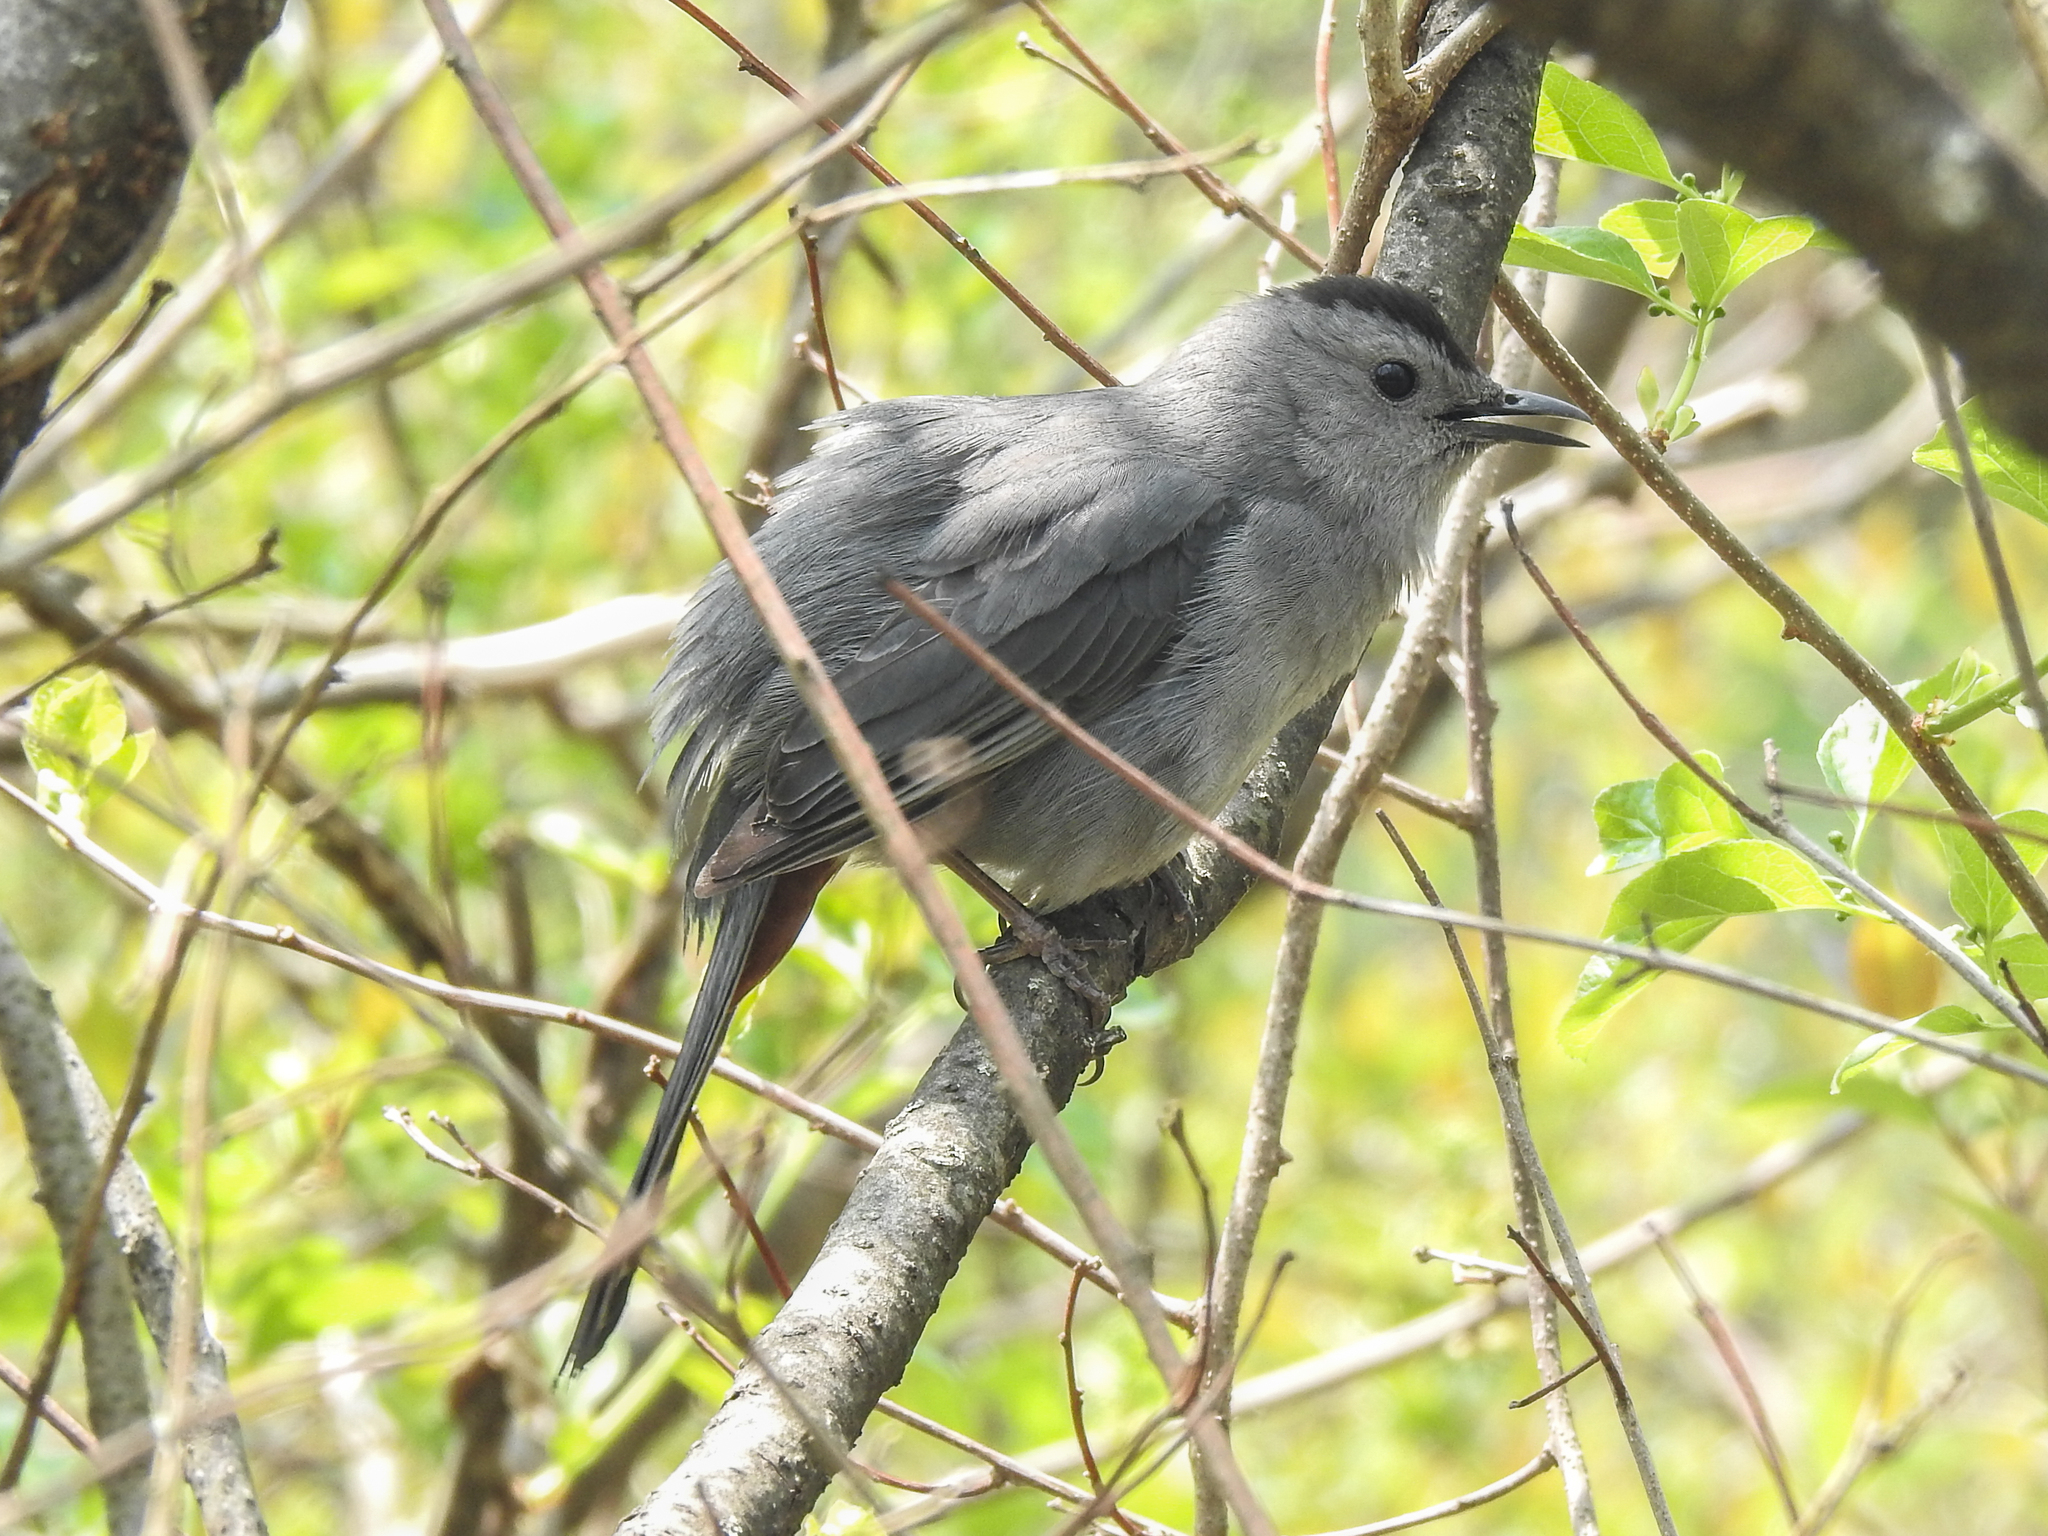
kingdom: Animalia
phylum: Chordata
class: Aves
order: Passeriformes
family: Mimidae
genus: Dumetella
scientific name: Dumetella carolinensis
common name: Gray catbird
